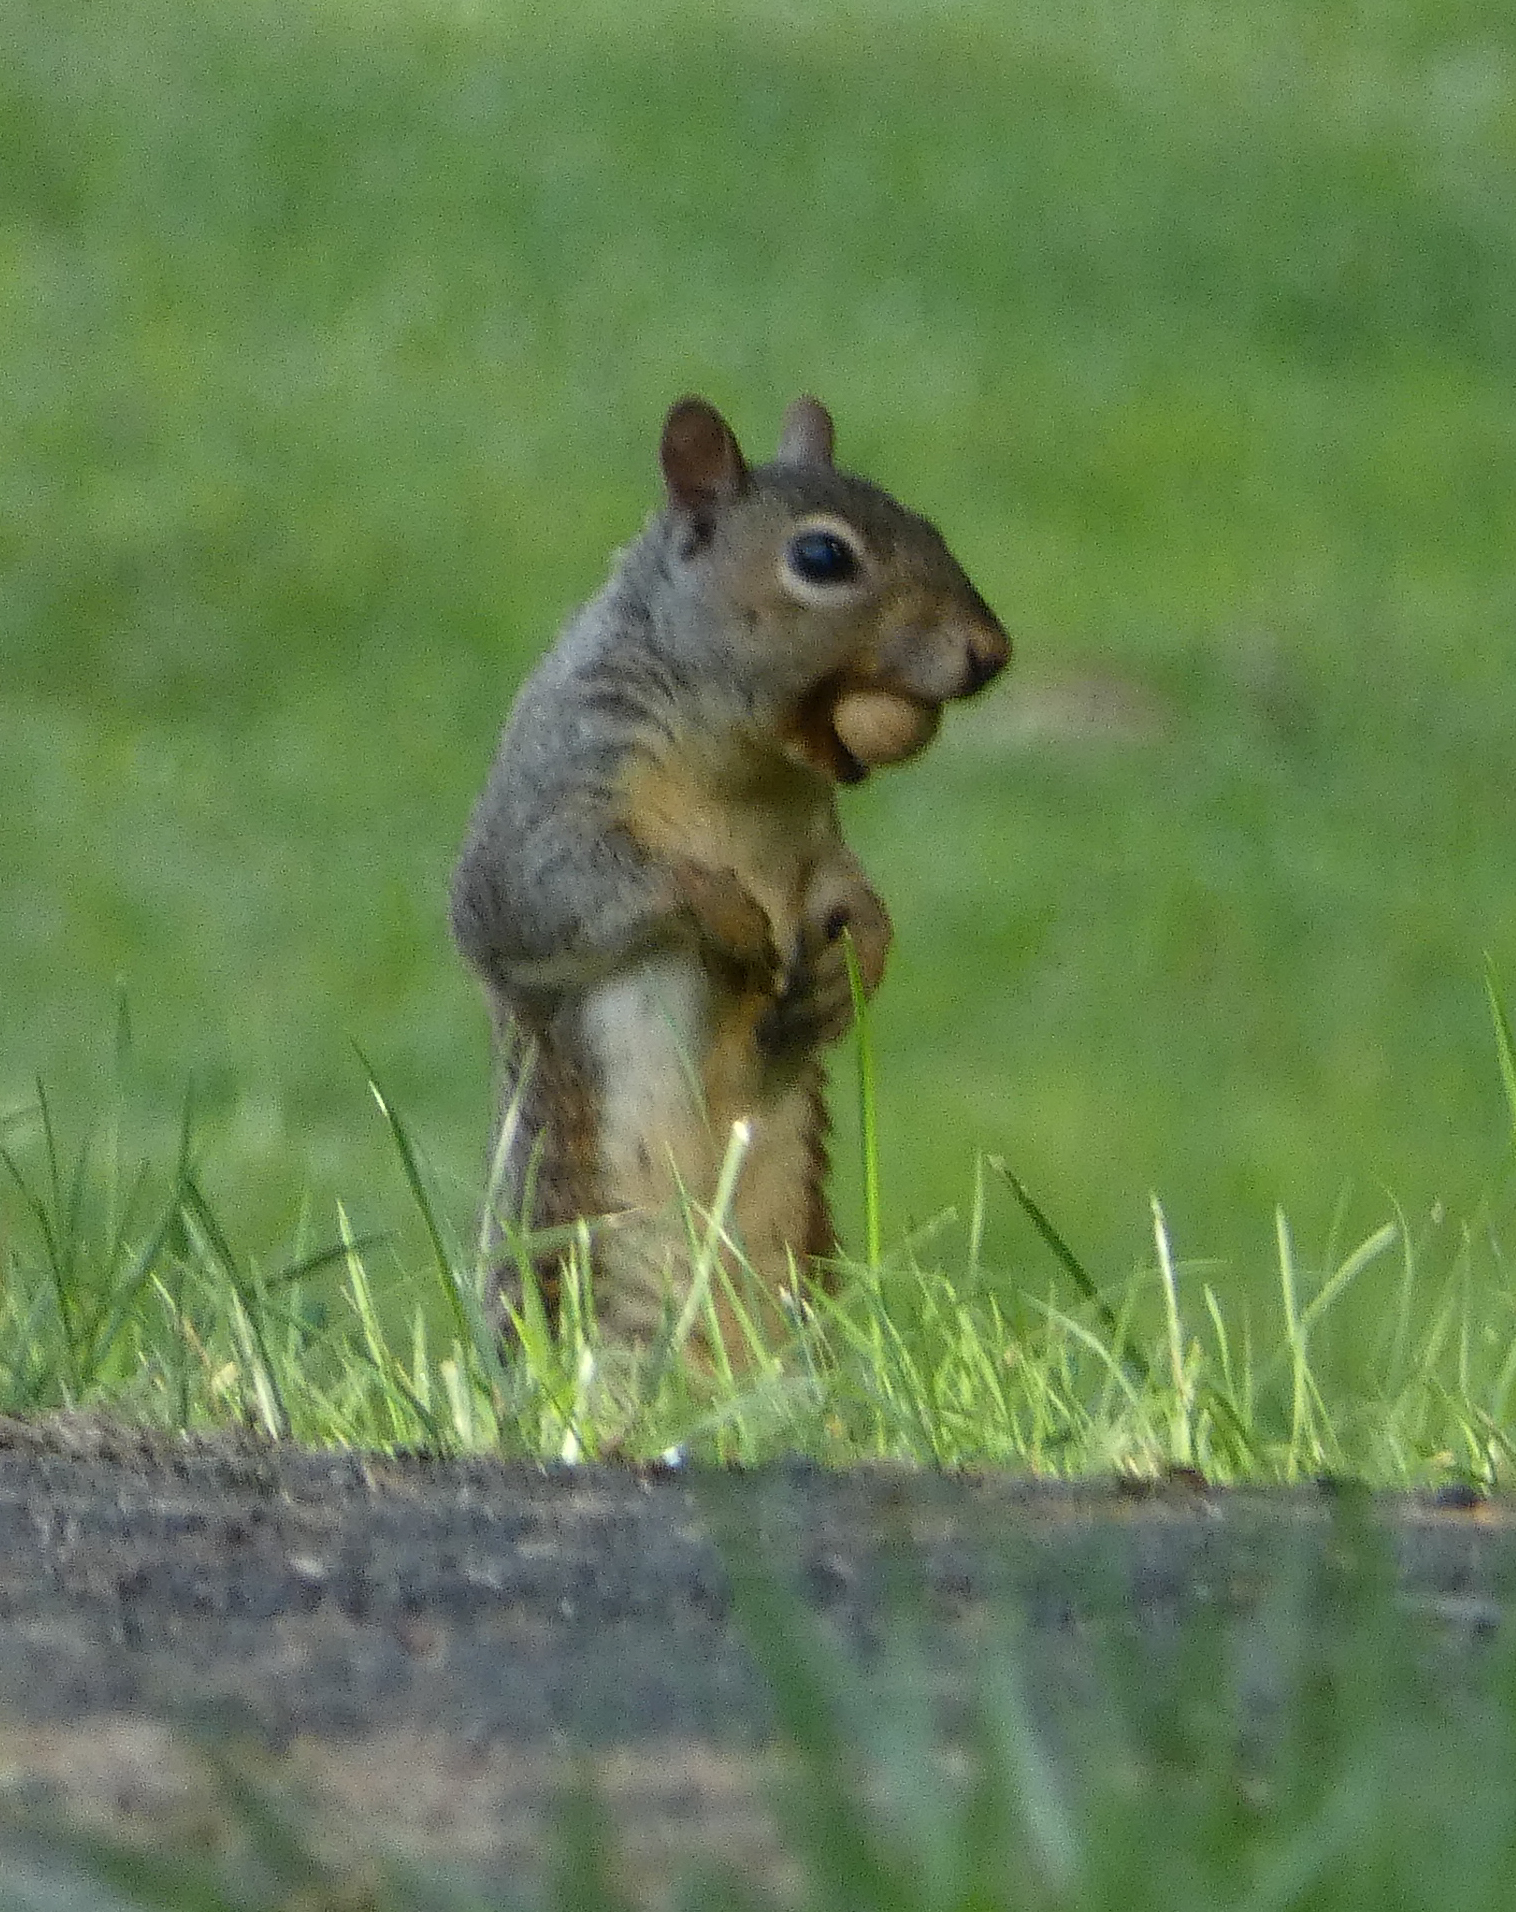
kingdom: Animalia
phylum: Chordata
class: Mammalia
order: Rodentia
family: Sciuridae
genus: Sciurus
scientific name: Sciurus carolinensis
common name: Eastern gray squirrel
